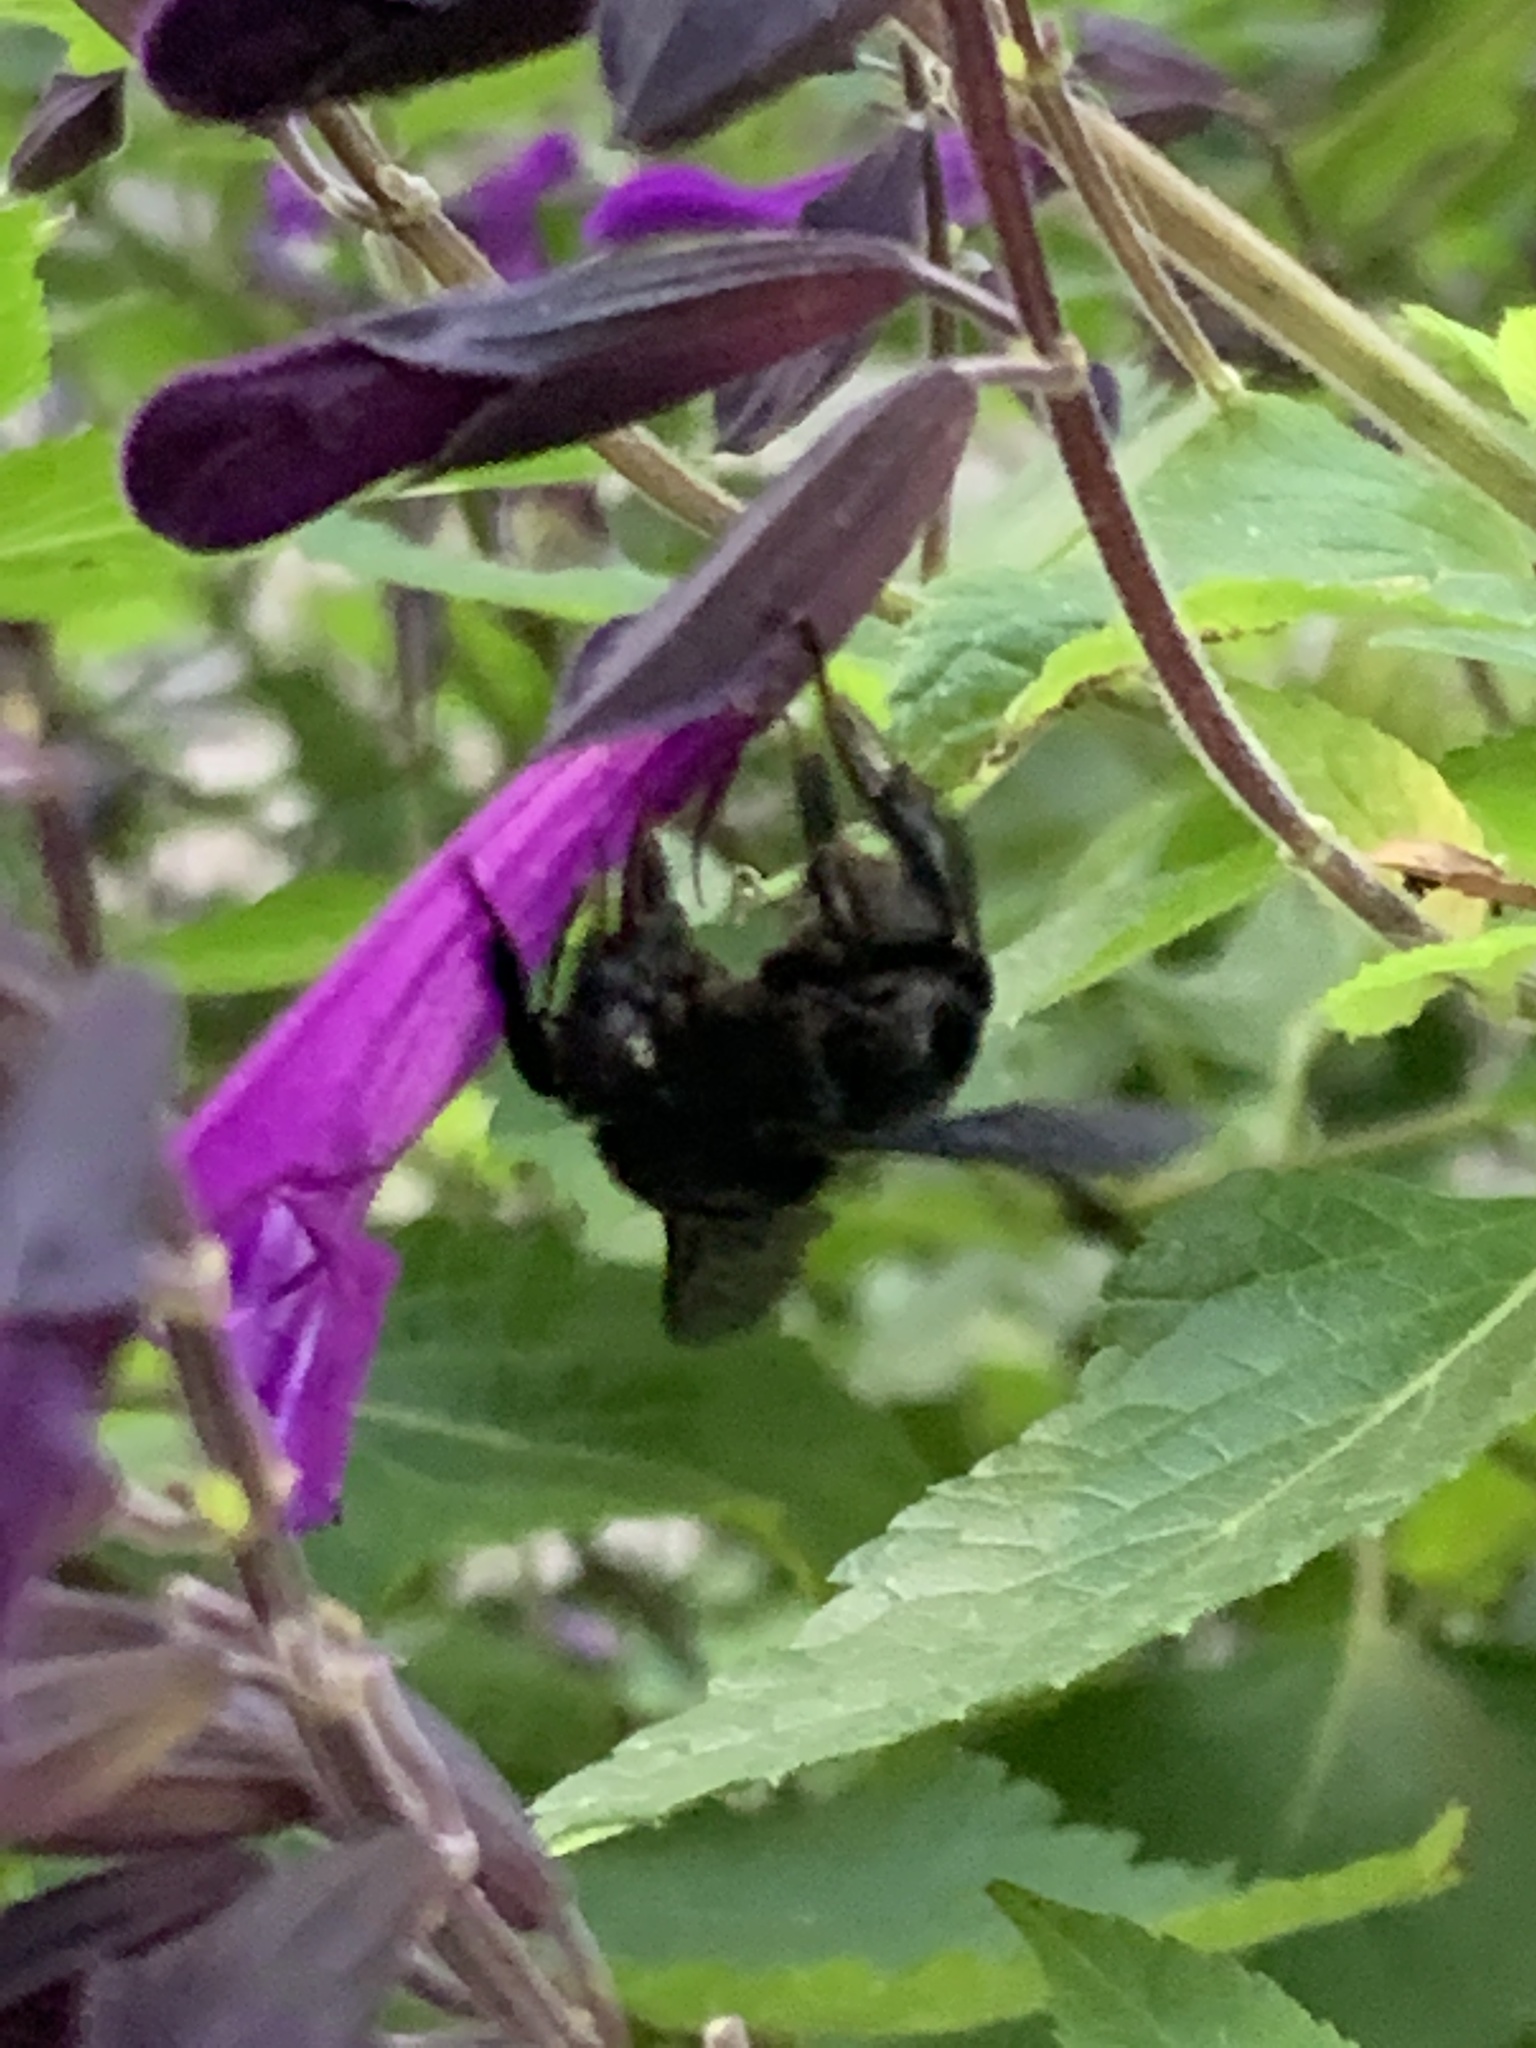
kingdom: Animalia
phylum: Arthropoda
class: Insecta
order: Hymenoptera
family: Apidae
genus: Bombus
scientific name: Bombus pauloensis
